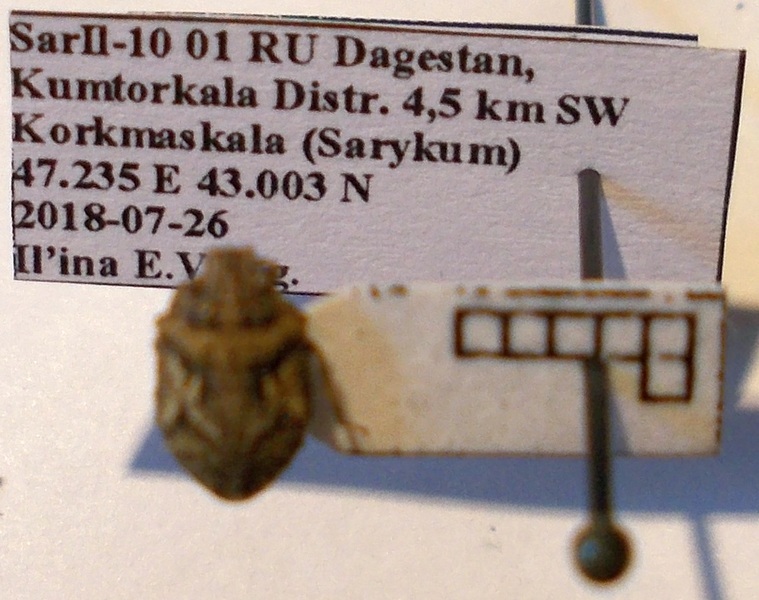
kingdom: Animalia
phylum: Arthropoda
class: Insecta
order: Hemiptera
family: Scutelleridae
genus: Phimodera
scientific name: Phimodera humeralis
